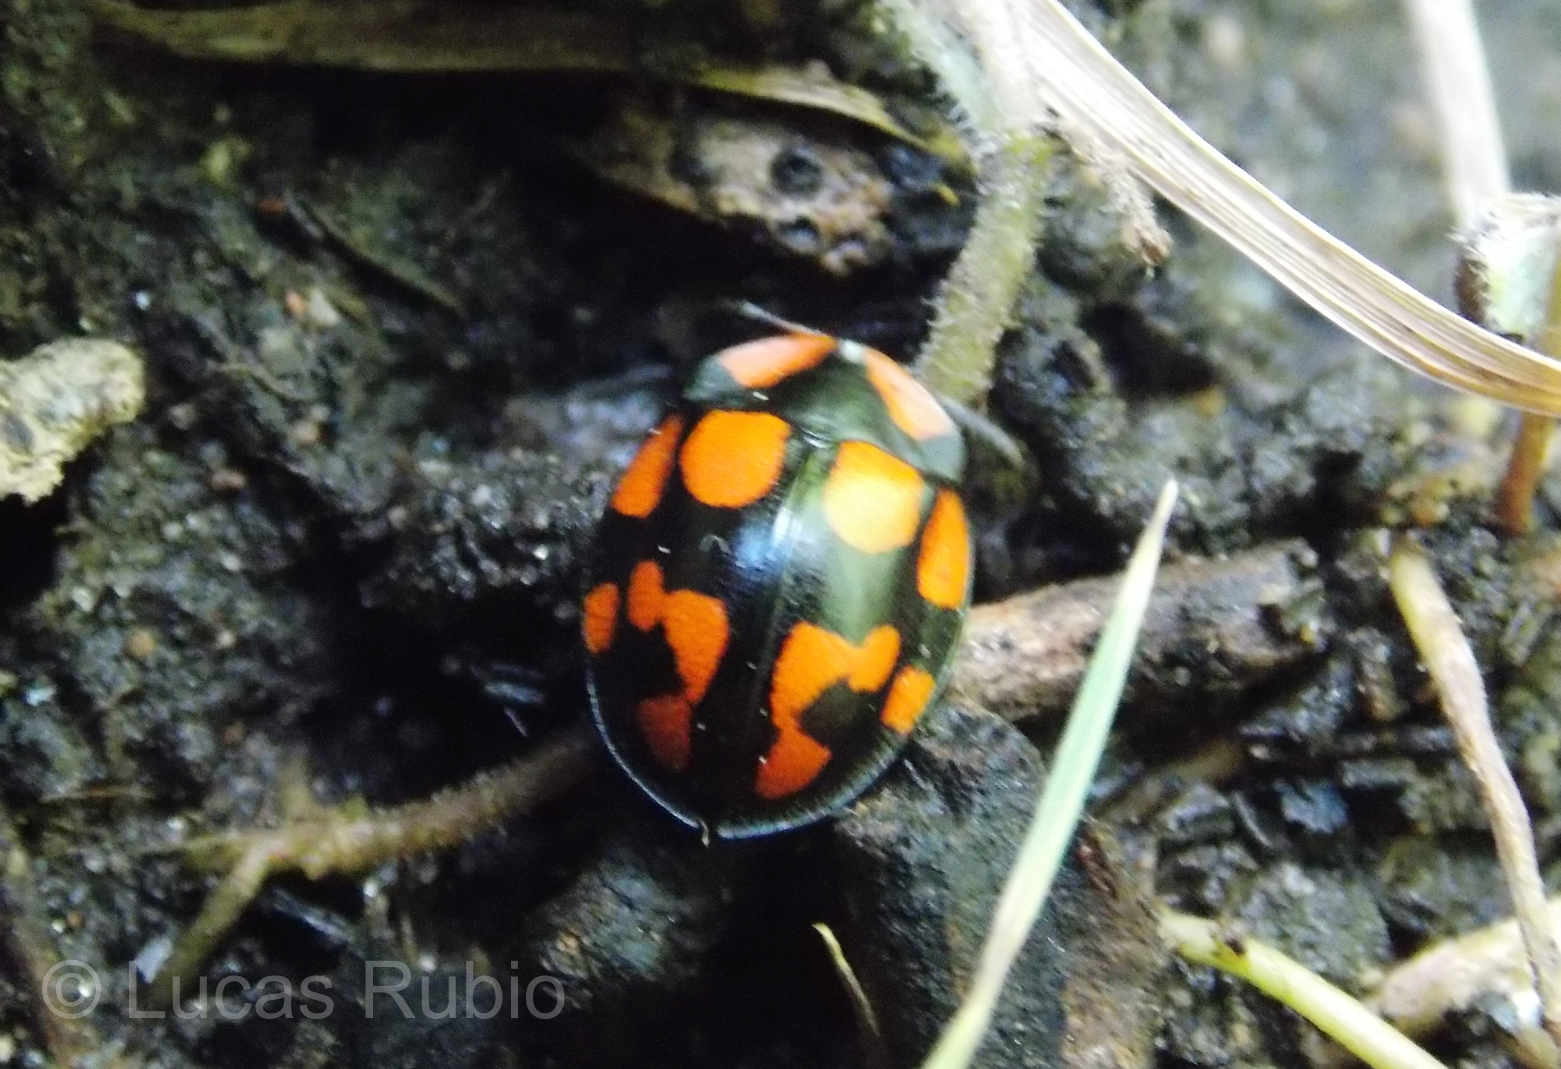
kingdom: Animalia
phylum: Arthropoda
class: Insecta
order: Coleoptera
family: Chrysomelidae
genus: Botanochara
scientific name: Botanochara duodecimverrucata
